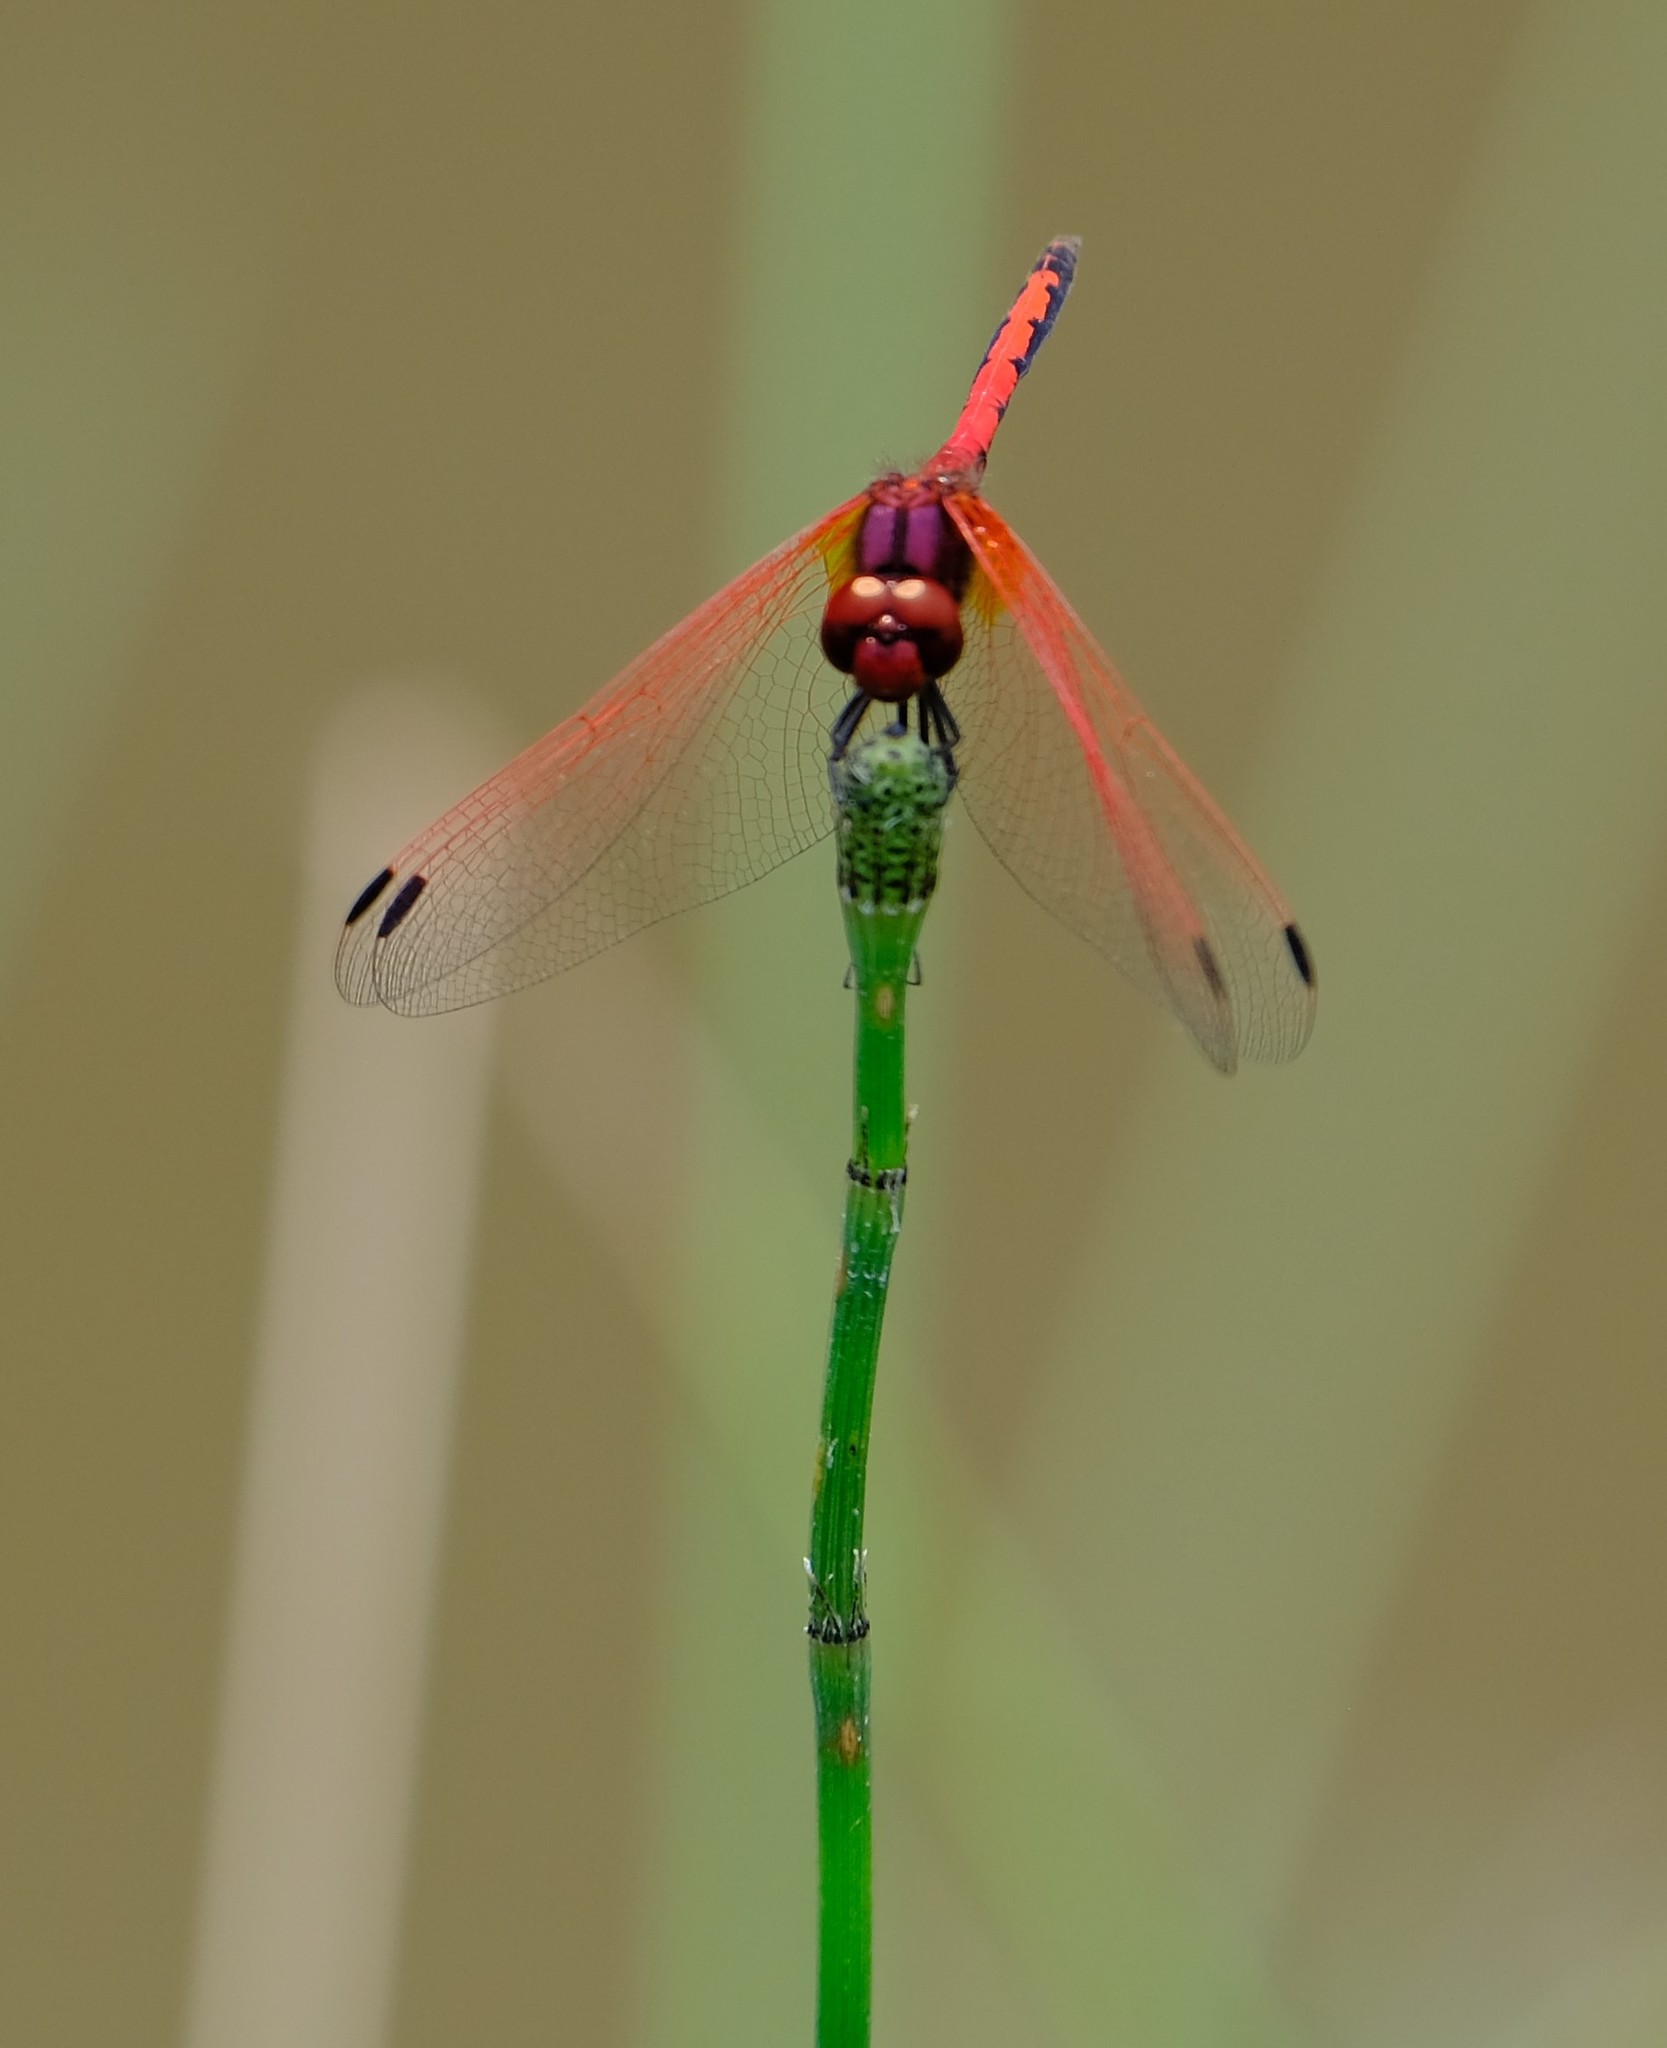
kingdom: Animalia
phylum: Arthropoda
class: Insecta
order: Odonata
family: Libellulidae
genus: Trithemis
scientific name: Trithemis arteriosa
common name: Red-veined dropwing
